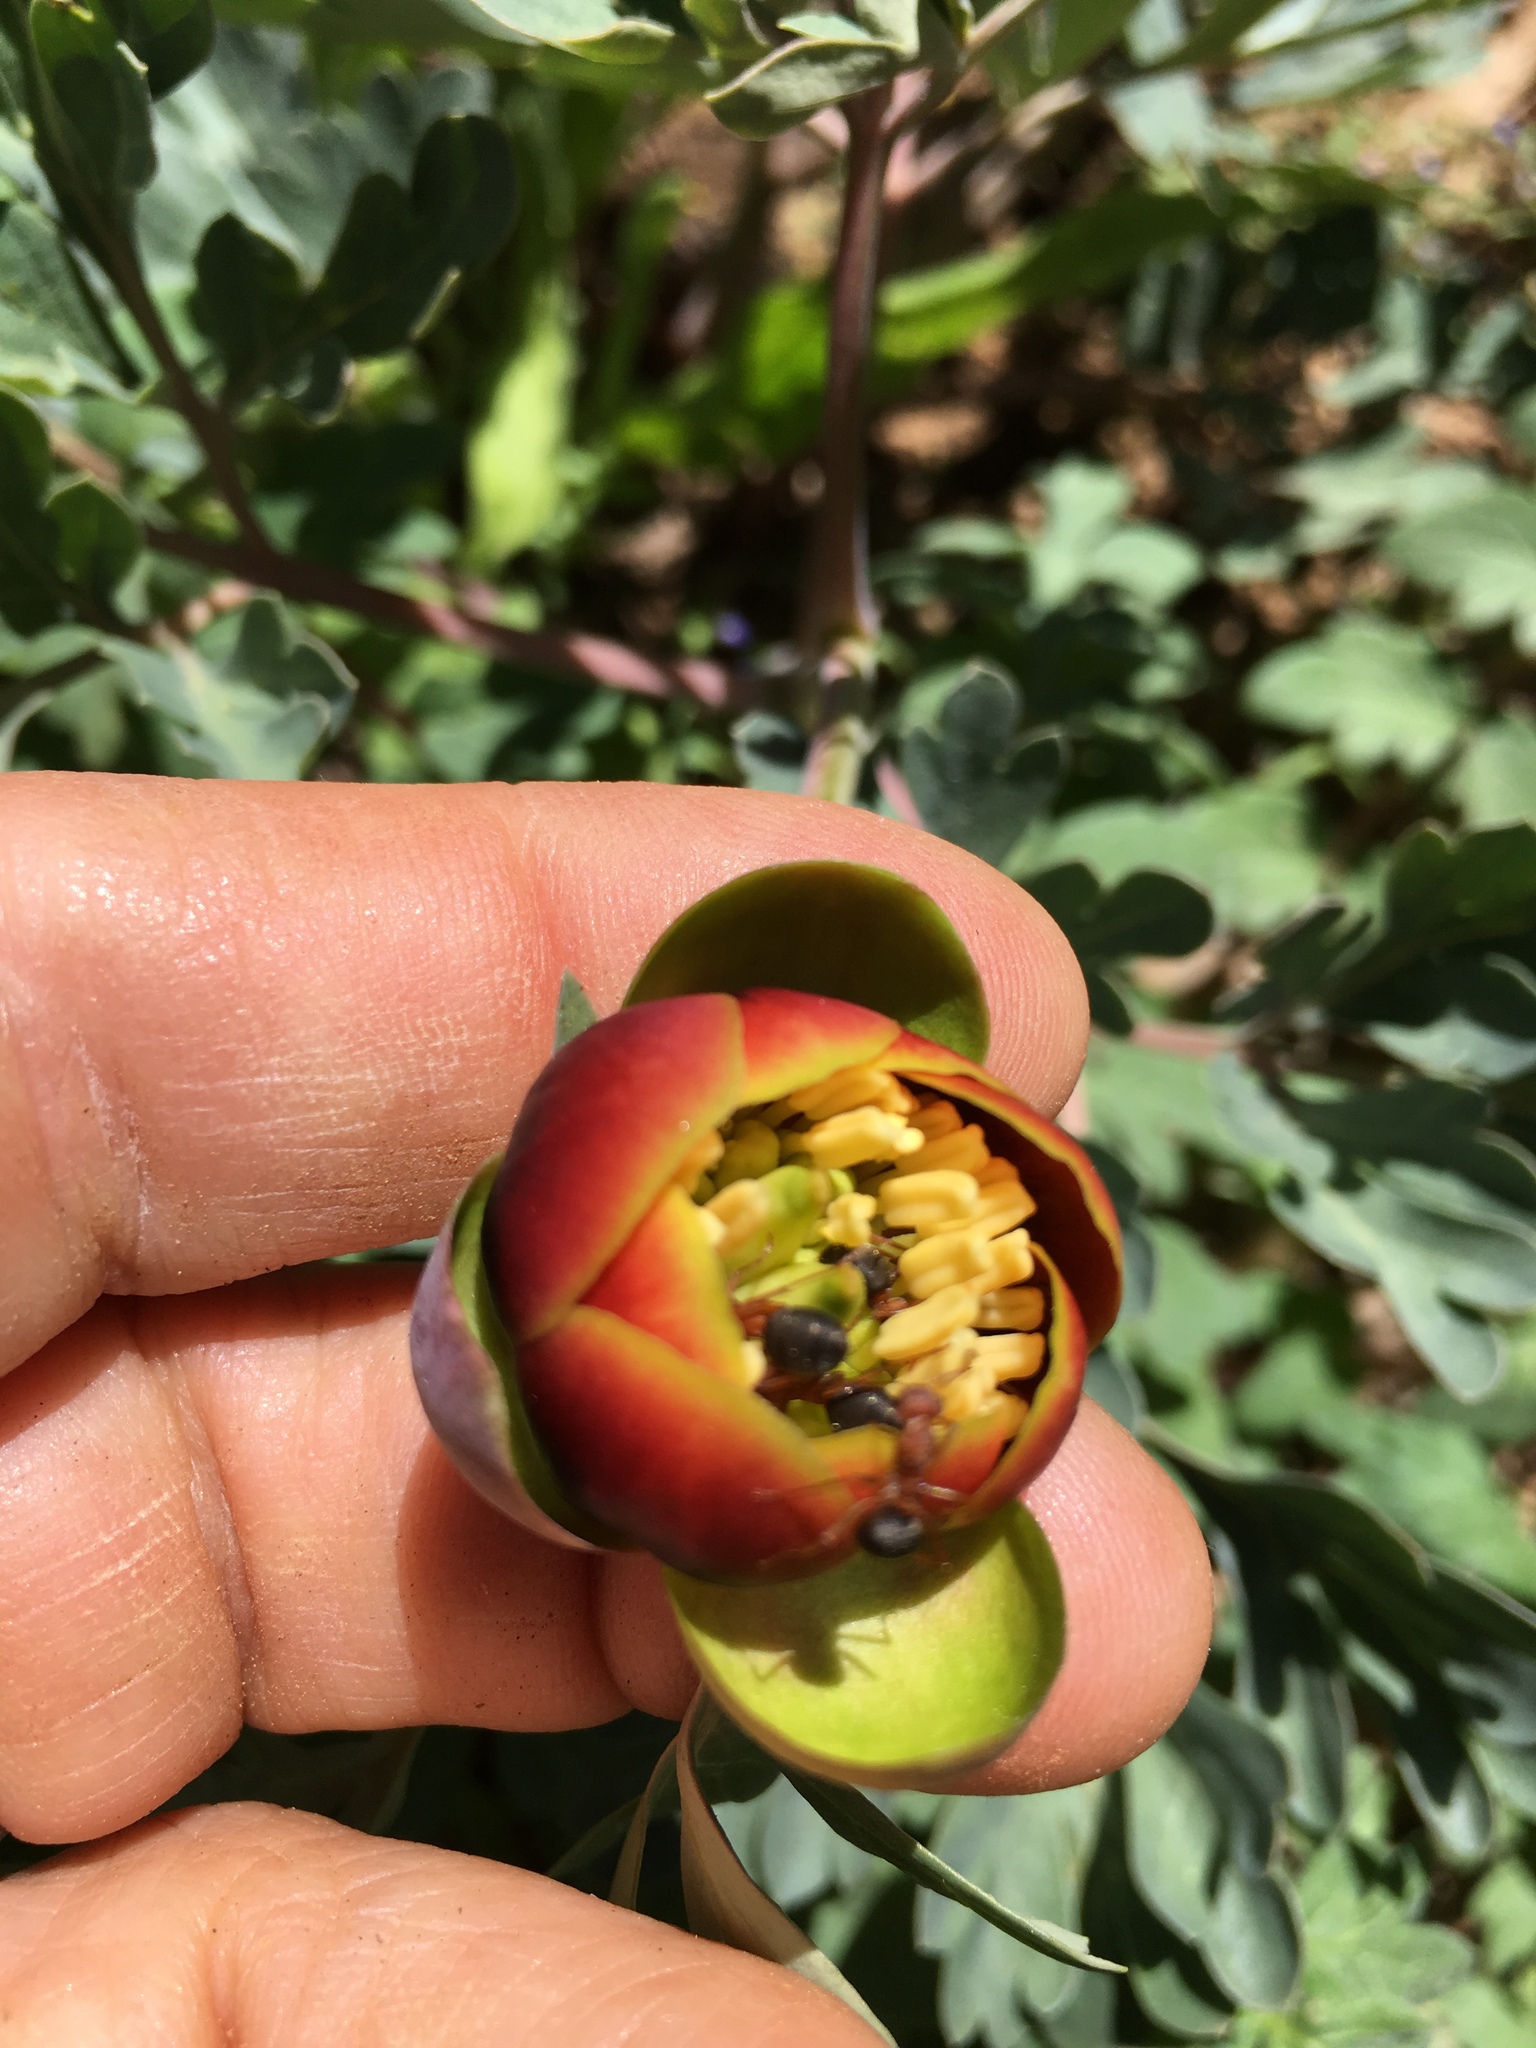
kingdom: Plantae
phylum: Tracheophyta
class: Magnoliopsida
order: Saxifragales
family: Paeoniaceae
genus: Paeonia
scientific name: Paeonia brownii
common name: Brown's peony
